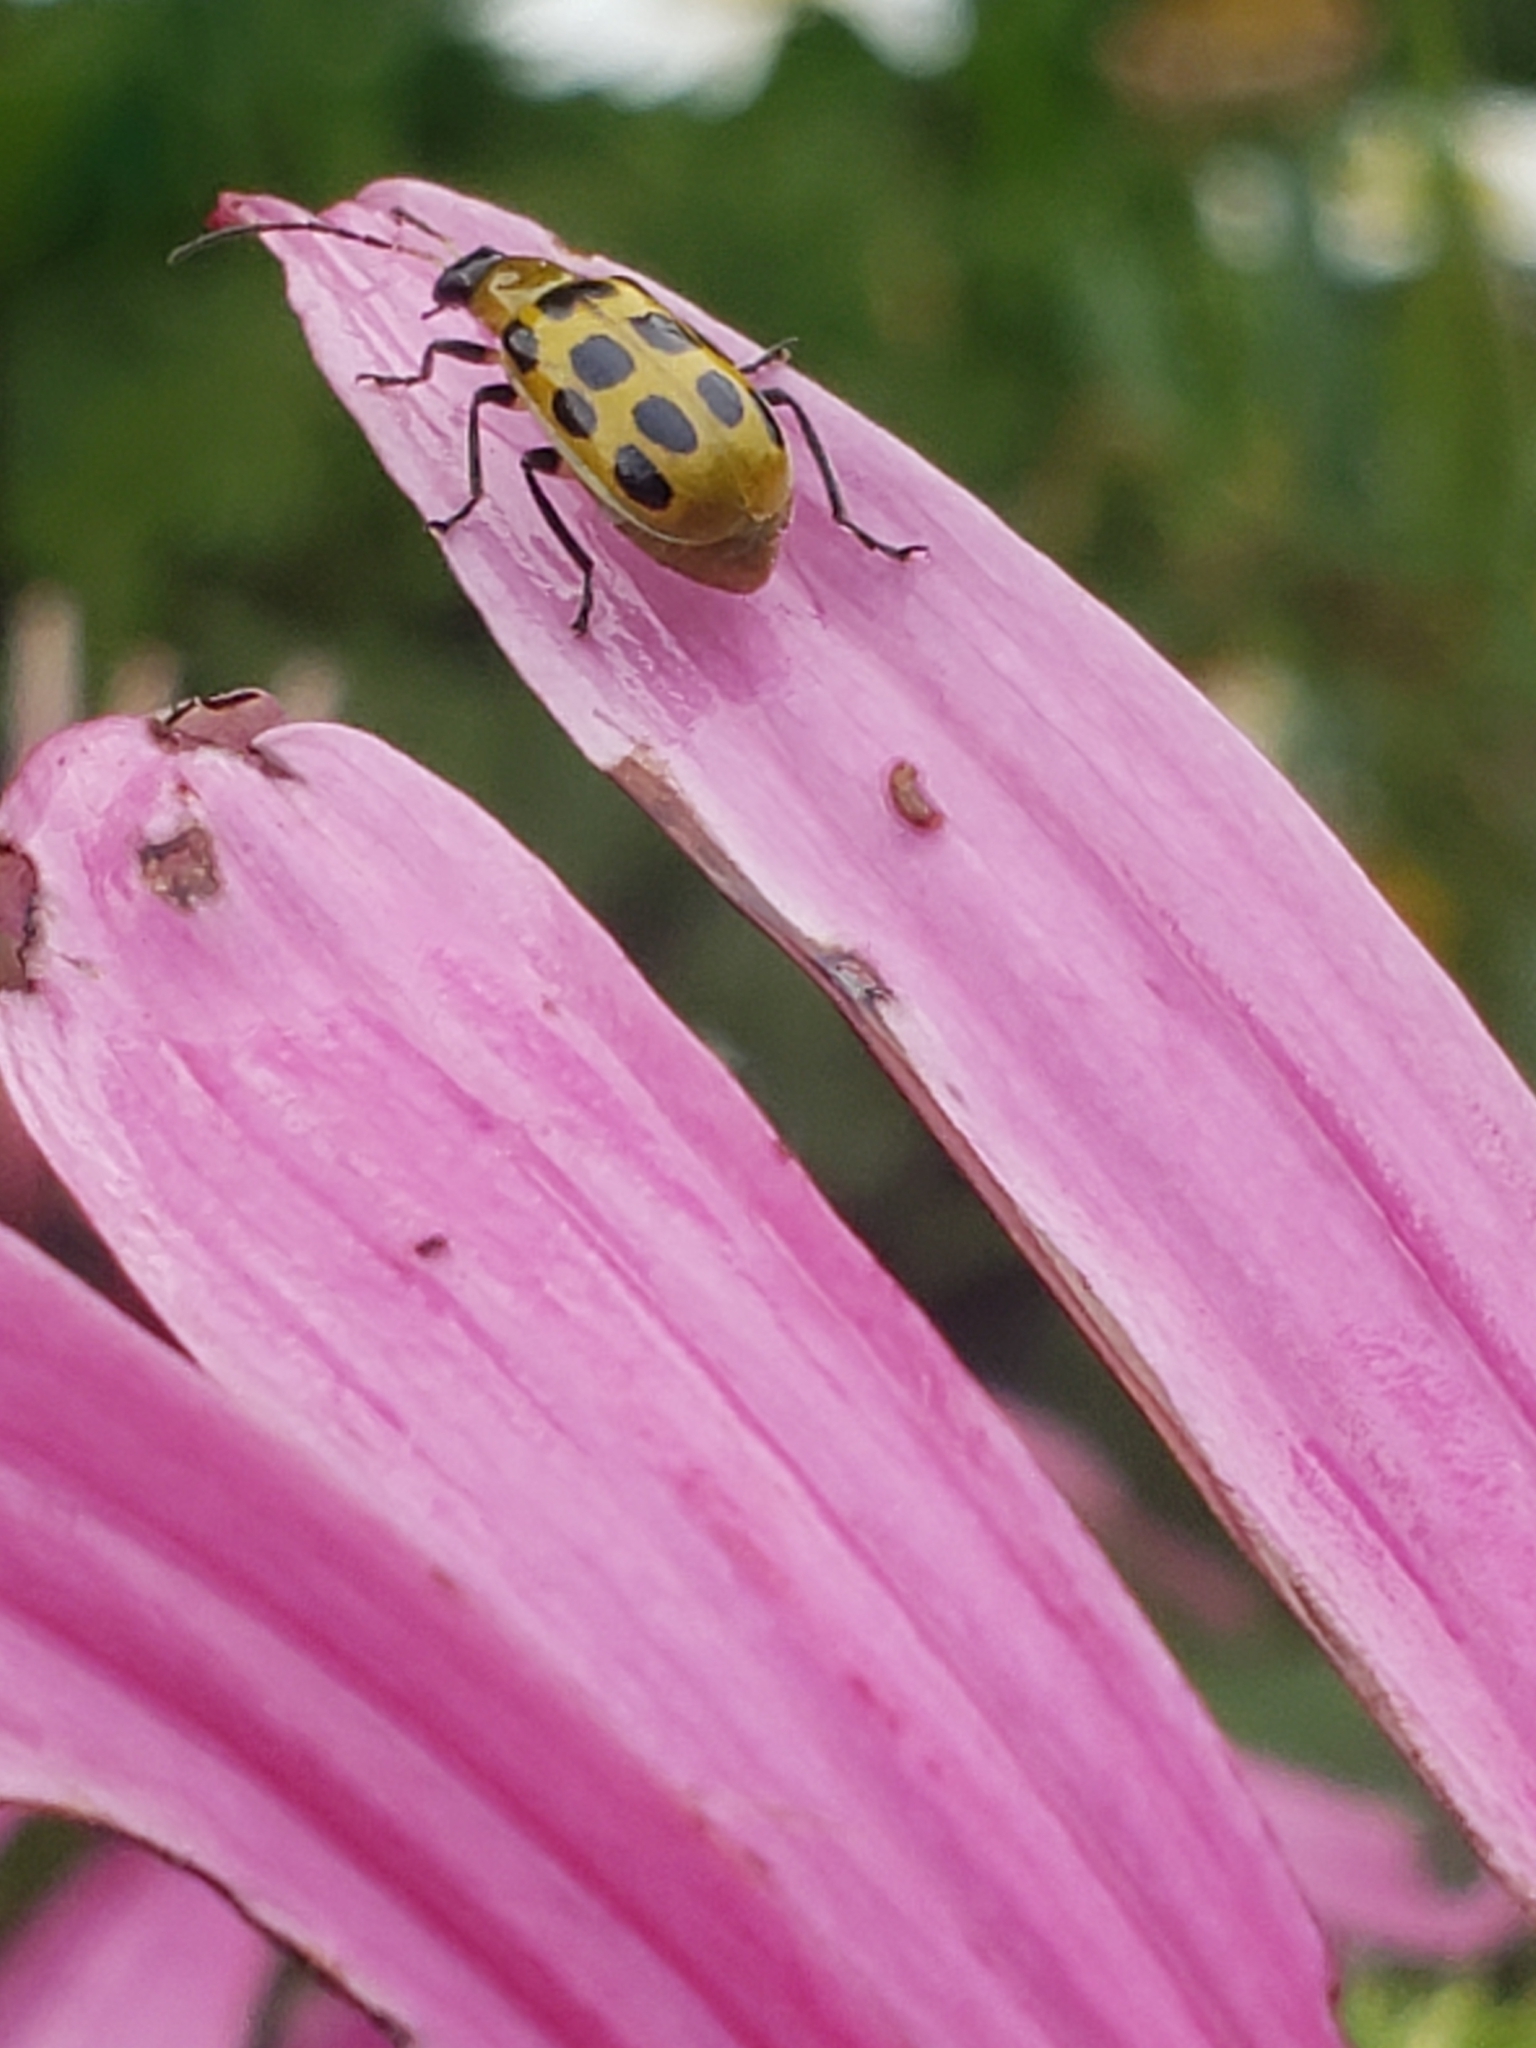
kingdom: Animalia
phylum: Arthropoda
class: Insecta
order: Coleoptera
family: Chrysomelidae
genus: Diabrotica
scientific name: Diabrotica undecimpunctata
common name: Spotted cucumber beetle
